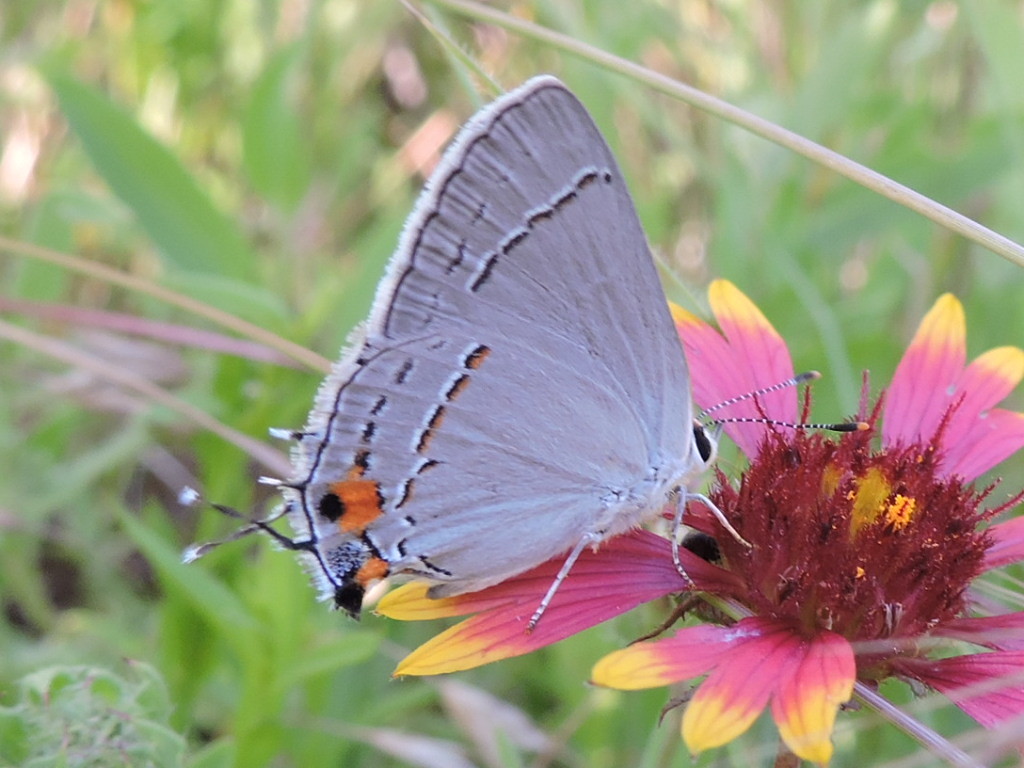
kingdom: Animalia
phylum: Arthropoda
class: Insecta
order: Lepidoptera
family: Lycaenidae
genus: Strymon
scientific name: Strymon melinus
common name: Gray hairstreak
